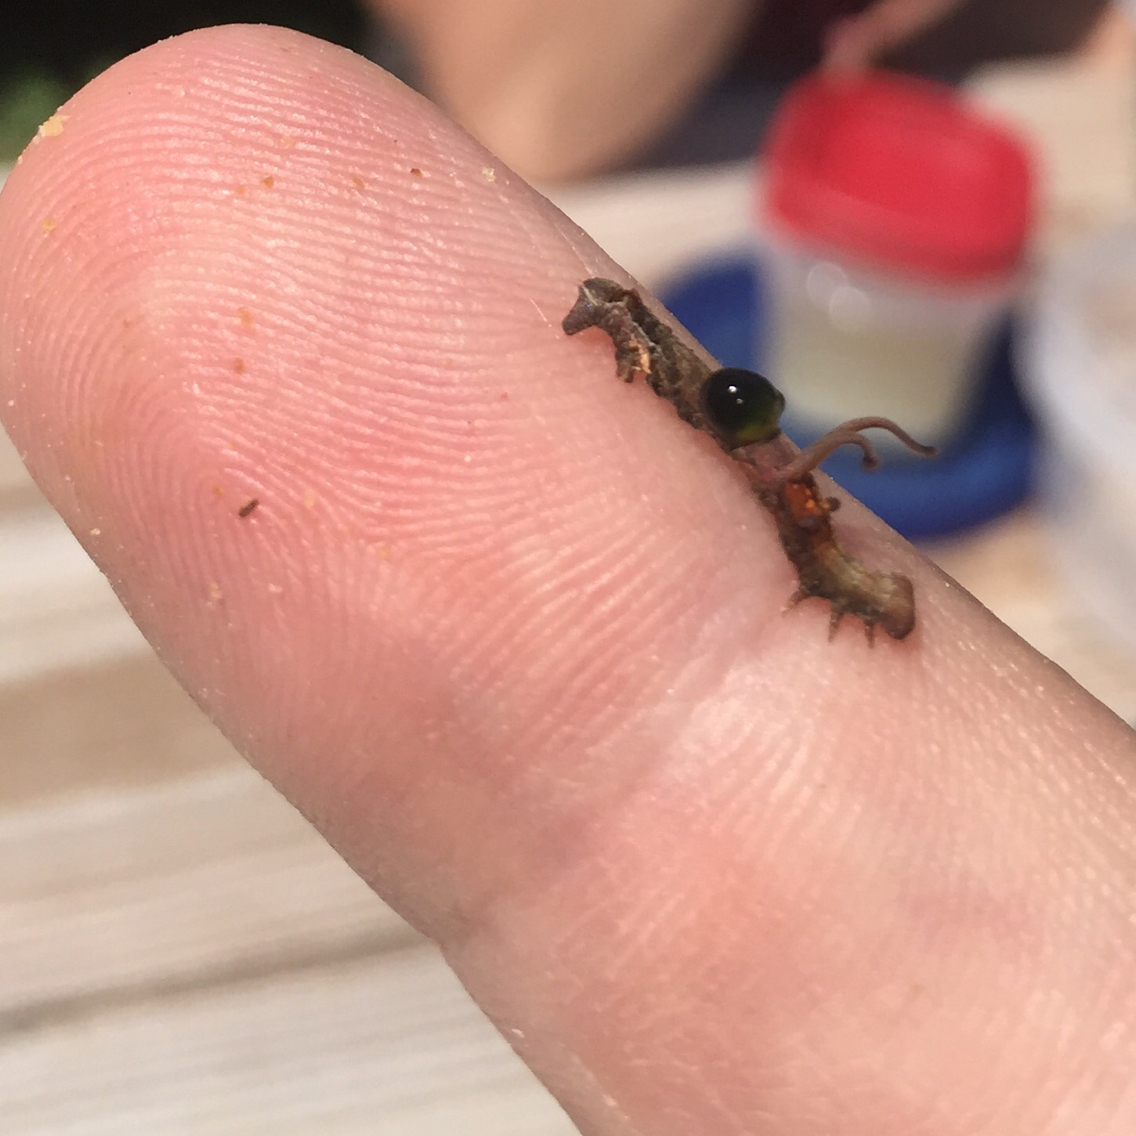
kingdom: Animalia
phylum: Arthropoda
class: Insecta
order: Lepidoptera
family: Geometridae
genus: Nematocampa
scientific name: Nematocampa resistaria
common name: Horned spanworm moth
